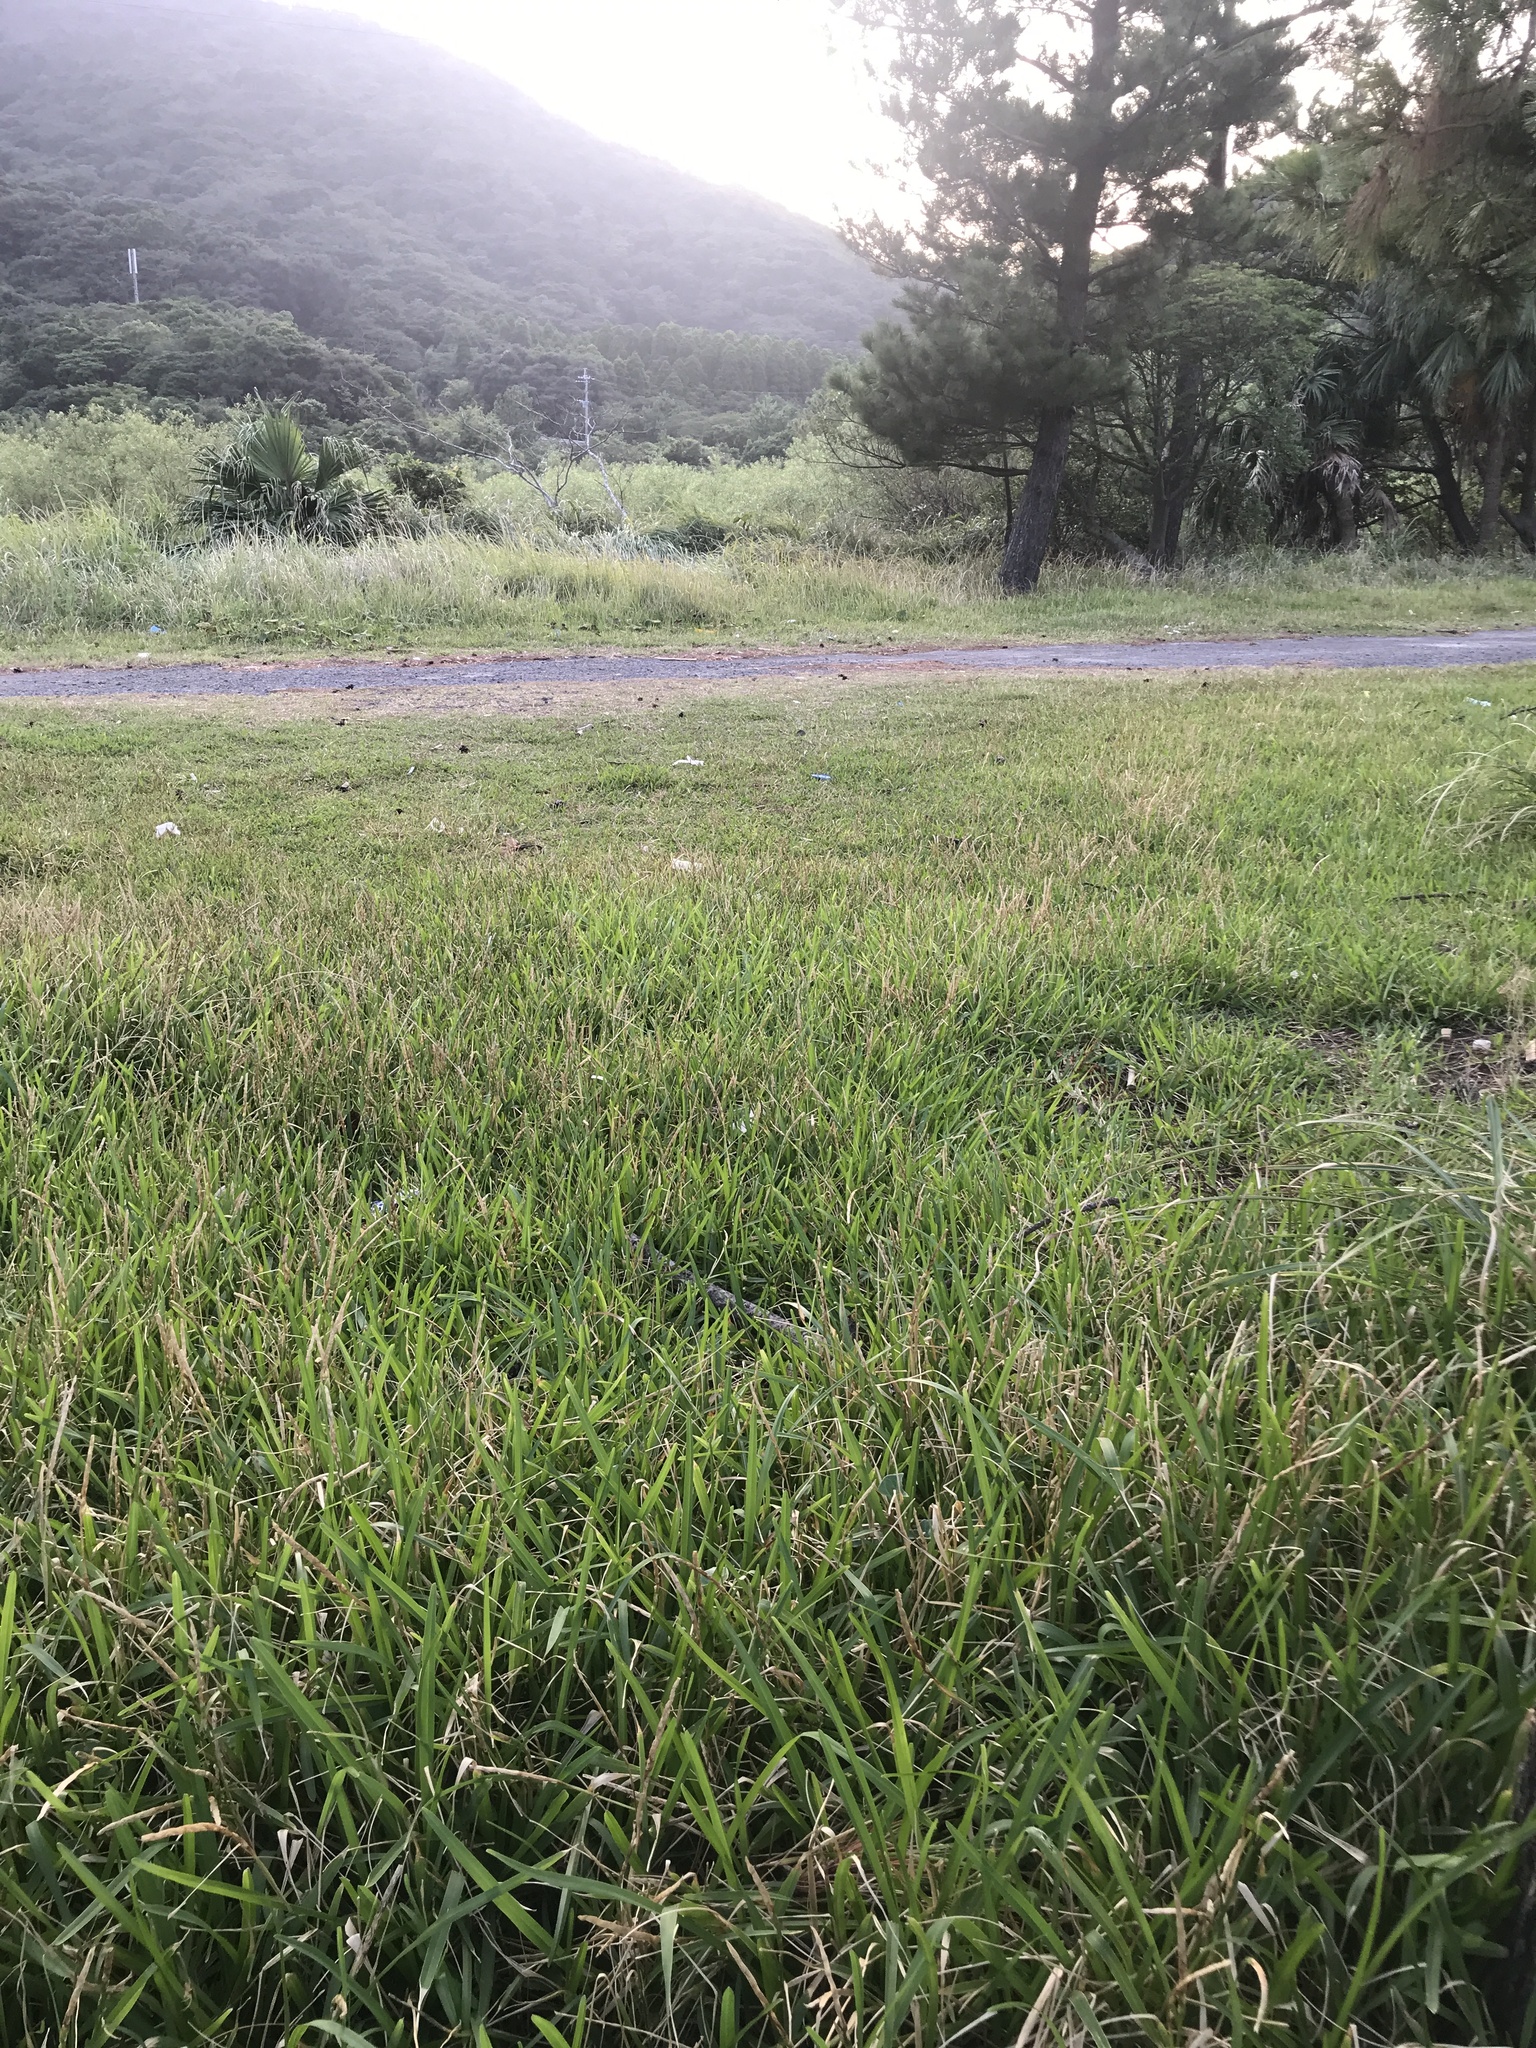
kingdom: Plantae
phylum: Tracheophyta
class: Liliopsida
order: Poales
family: Poaceae
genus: Stenotaphrum
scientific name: Stenotaphrum secundatum
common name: St. augustine grass
